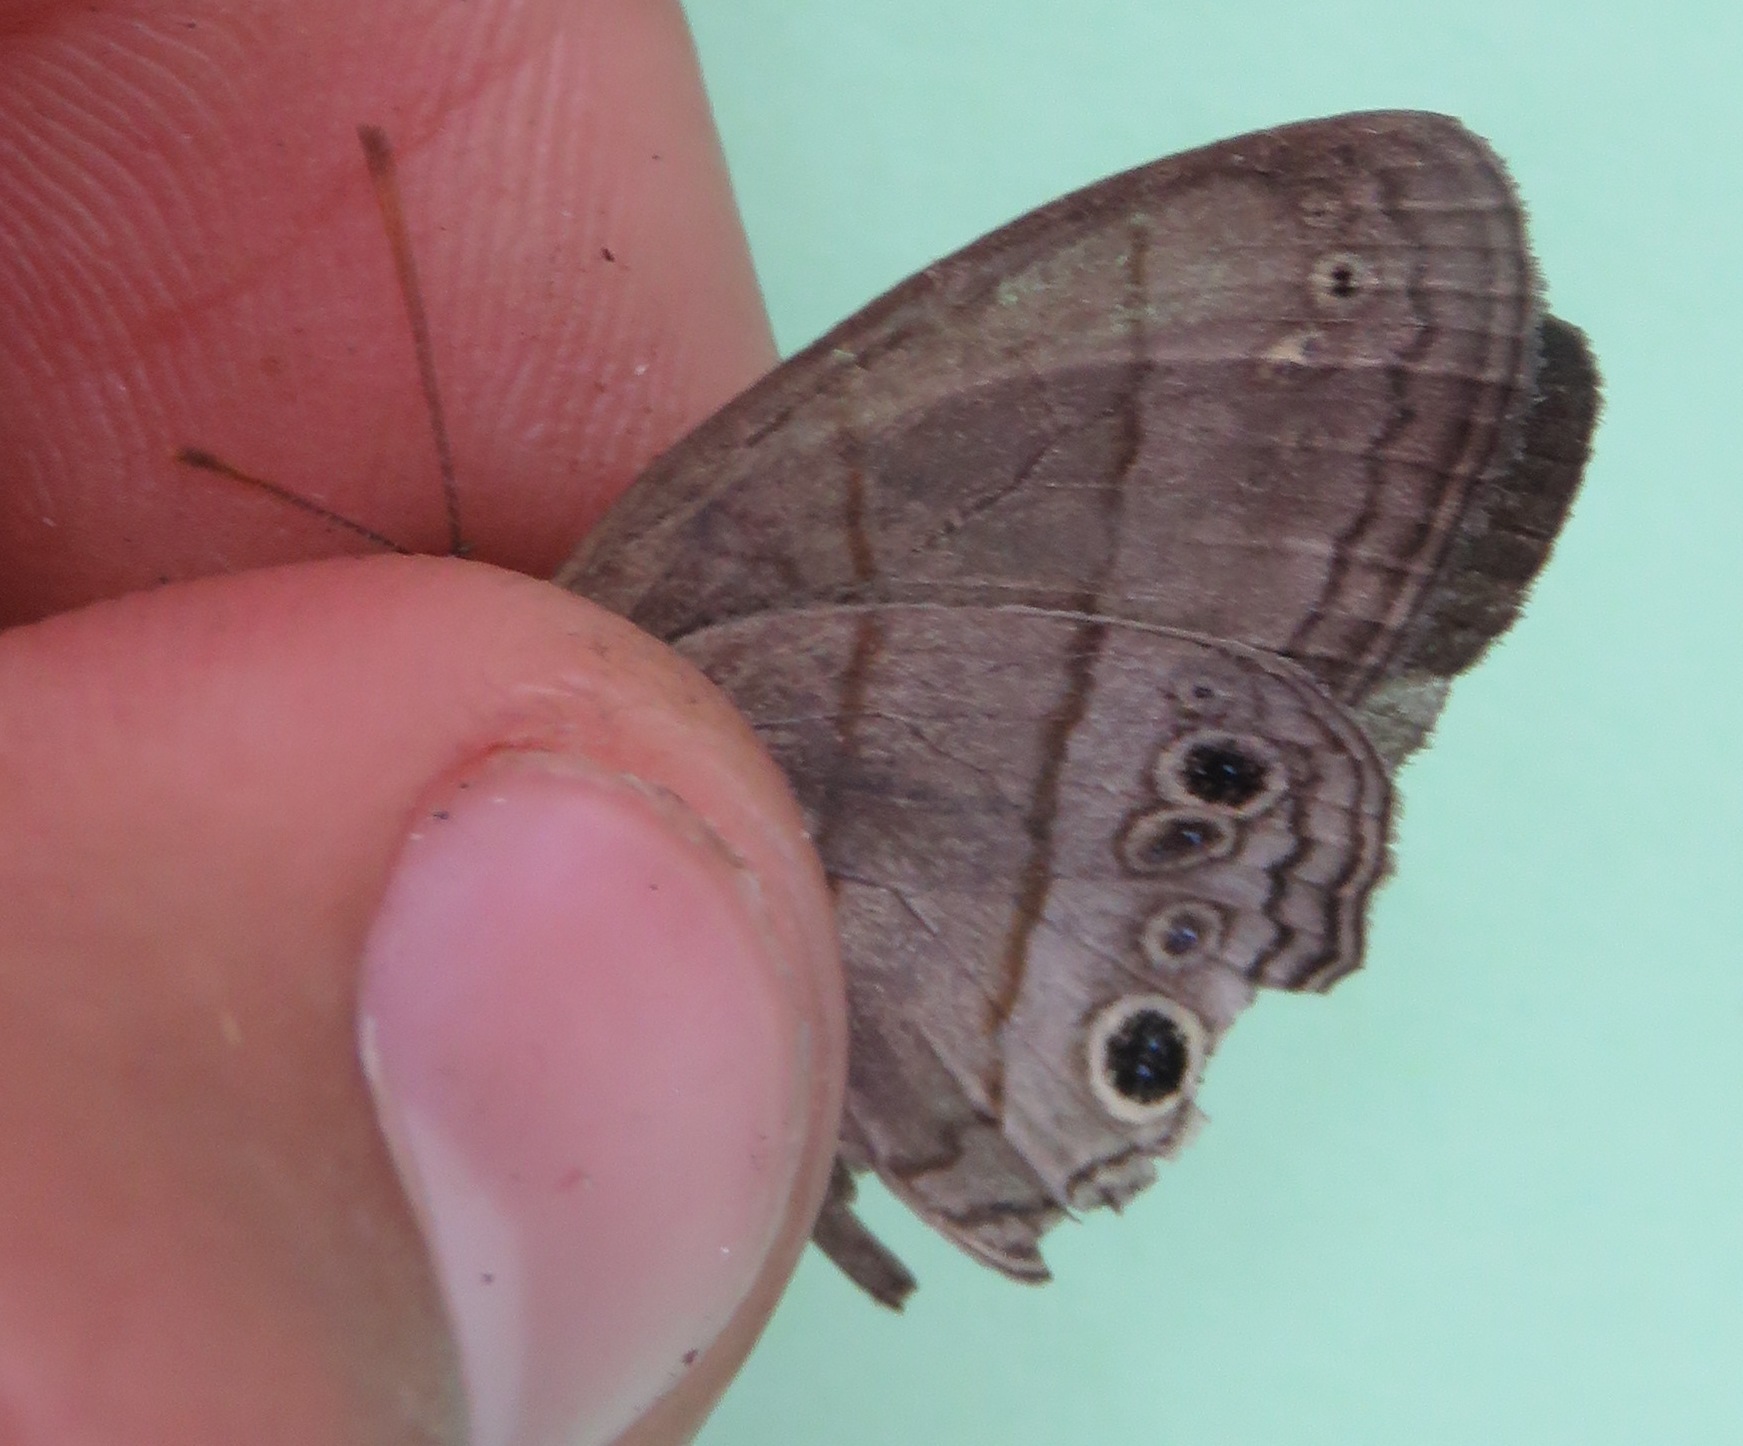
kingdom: Animalia
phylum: Arthropoda
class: Insecta
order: Lepidoptera
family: Nymphalidae
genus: Vareuptychia
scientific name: Vareuptychia similis
